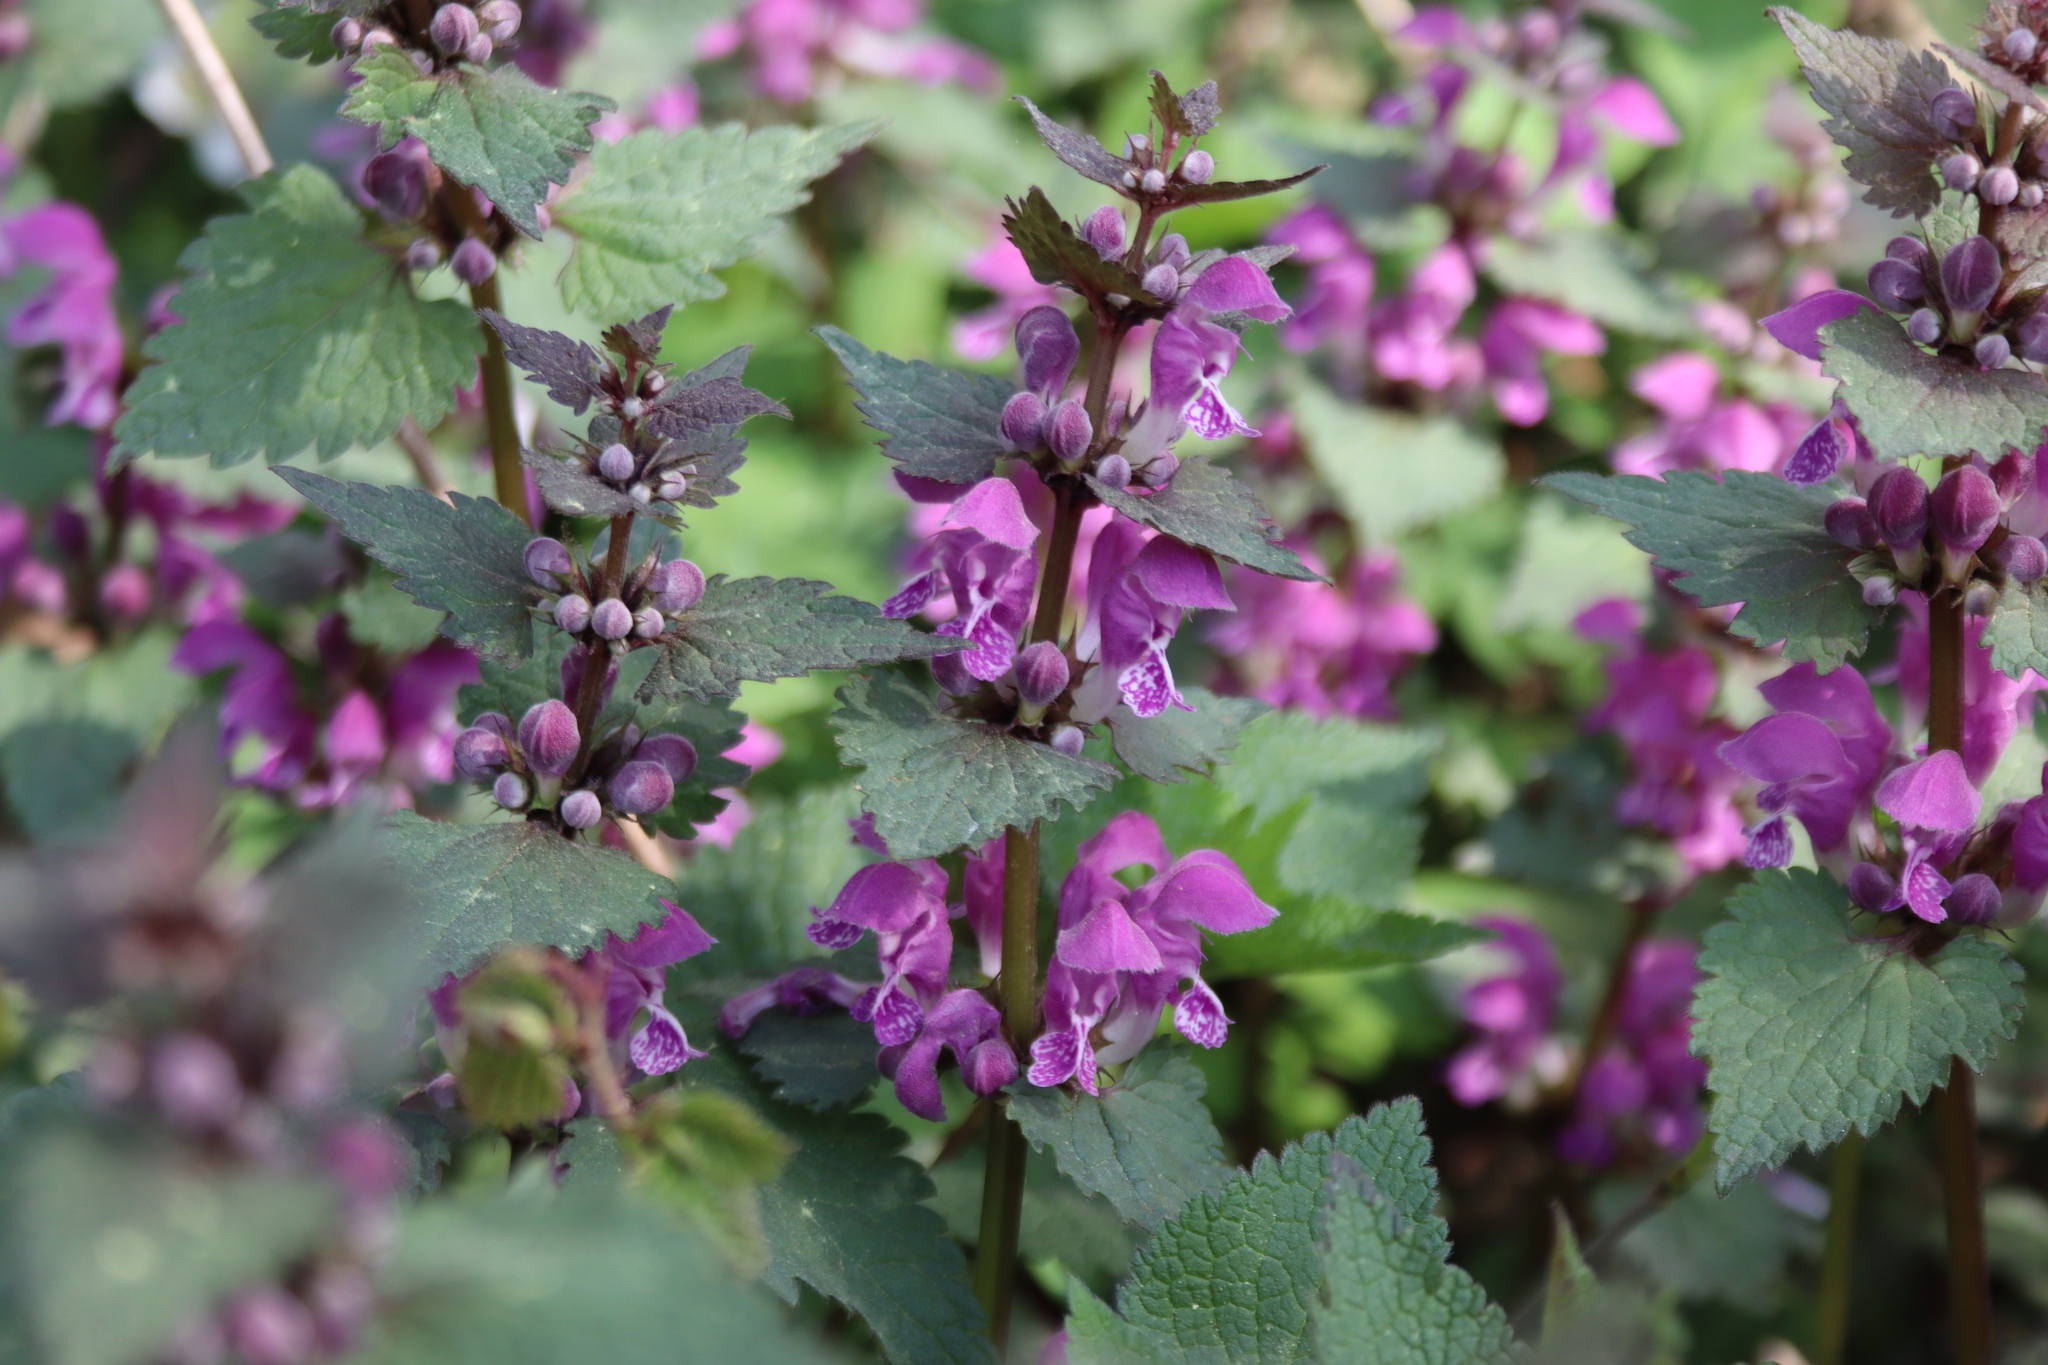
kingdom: Plantae
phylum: Tracheophyta
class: Magnoliopsida
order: Lamiales
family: Lamiaceae
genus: Lamium
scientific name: Lamium maculatum
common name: Spotted dead-nettle
